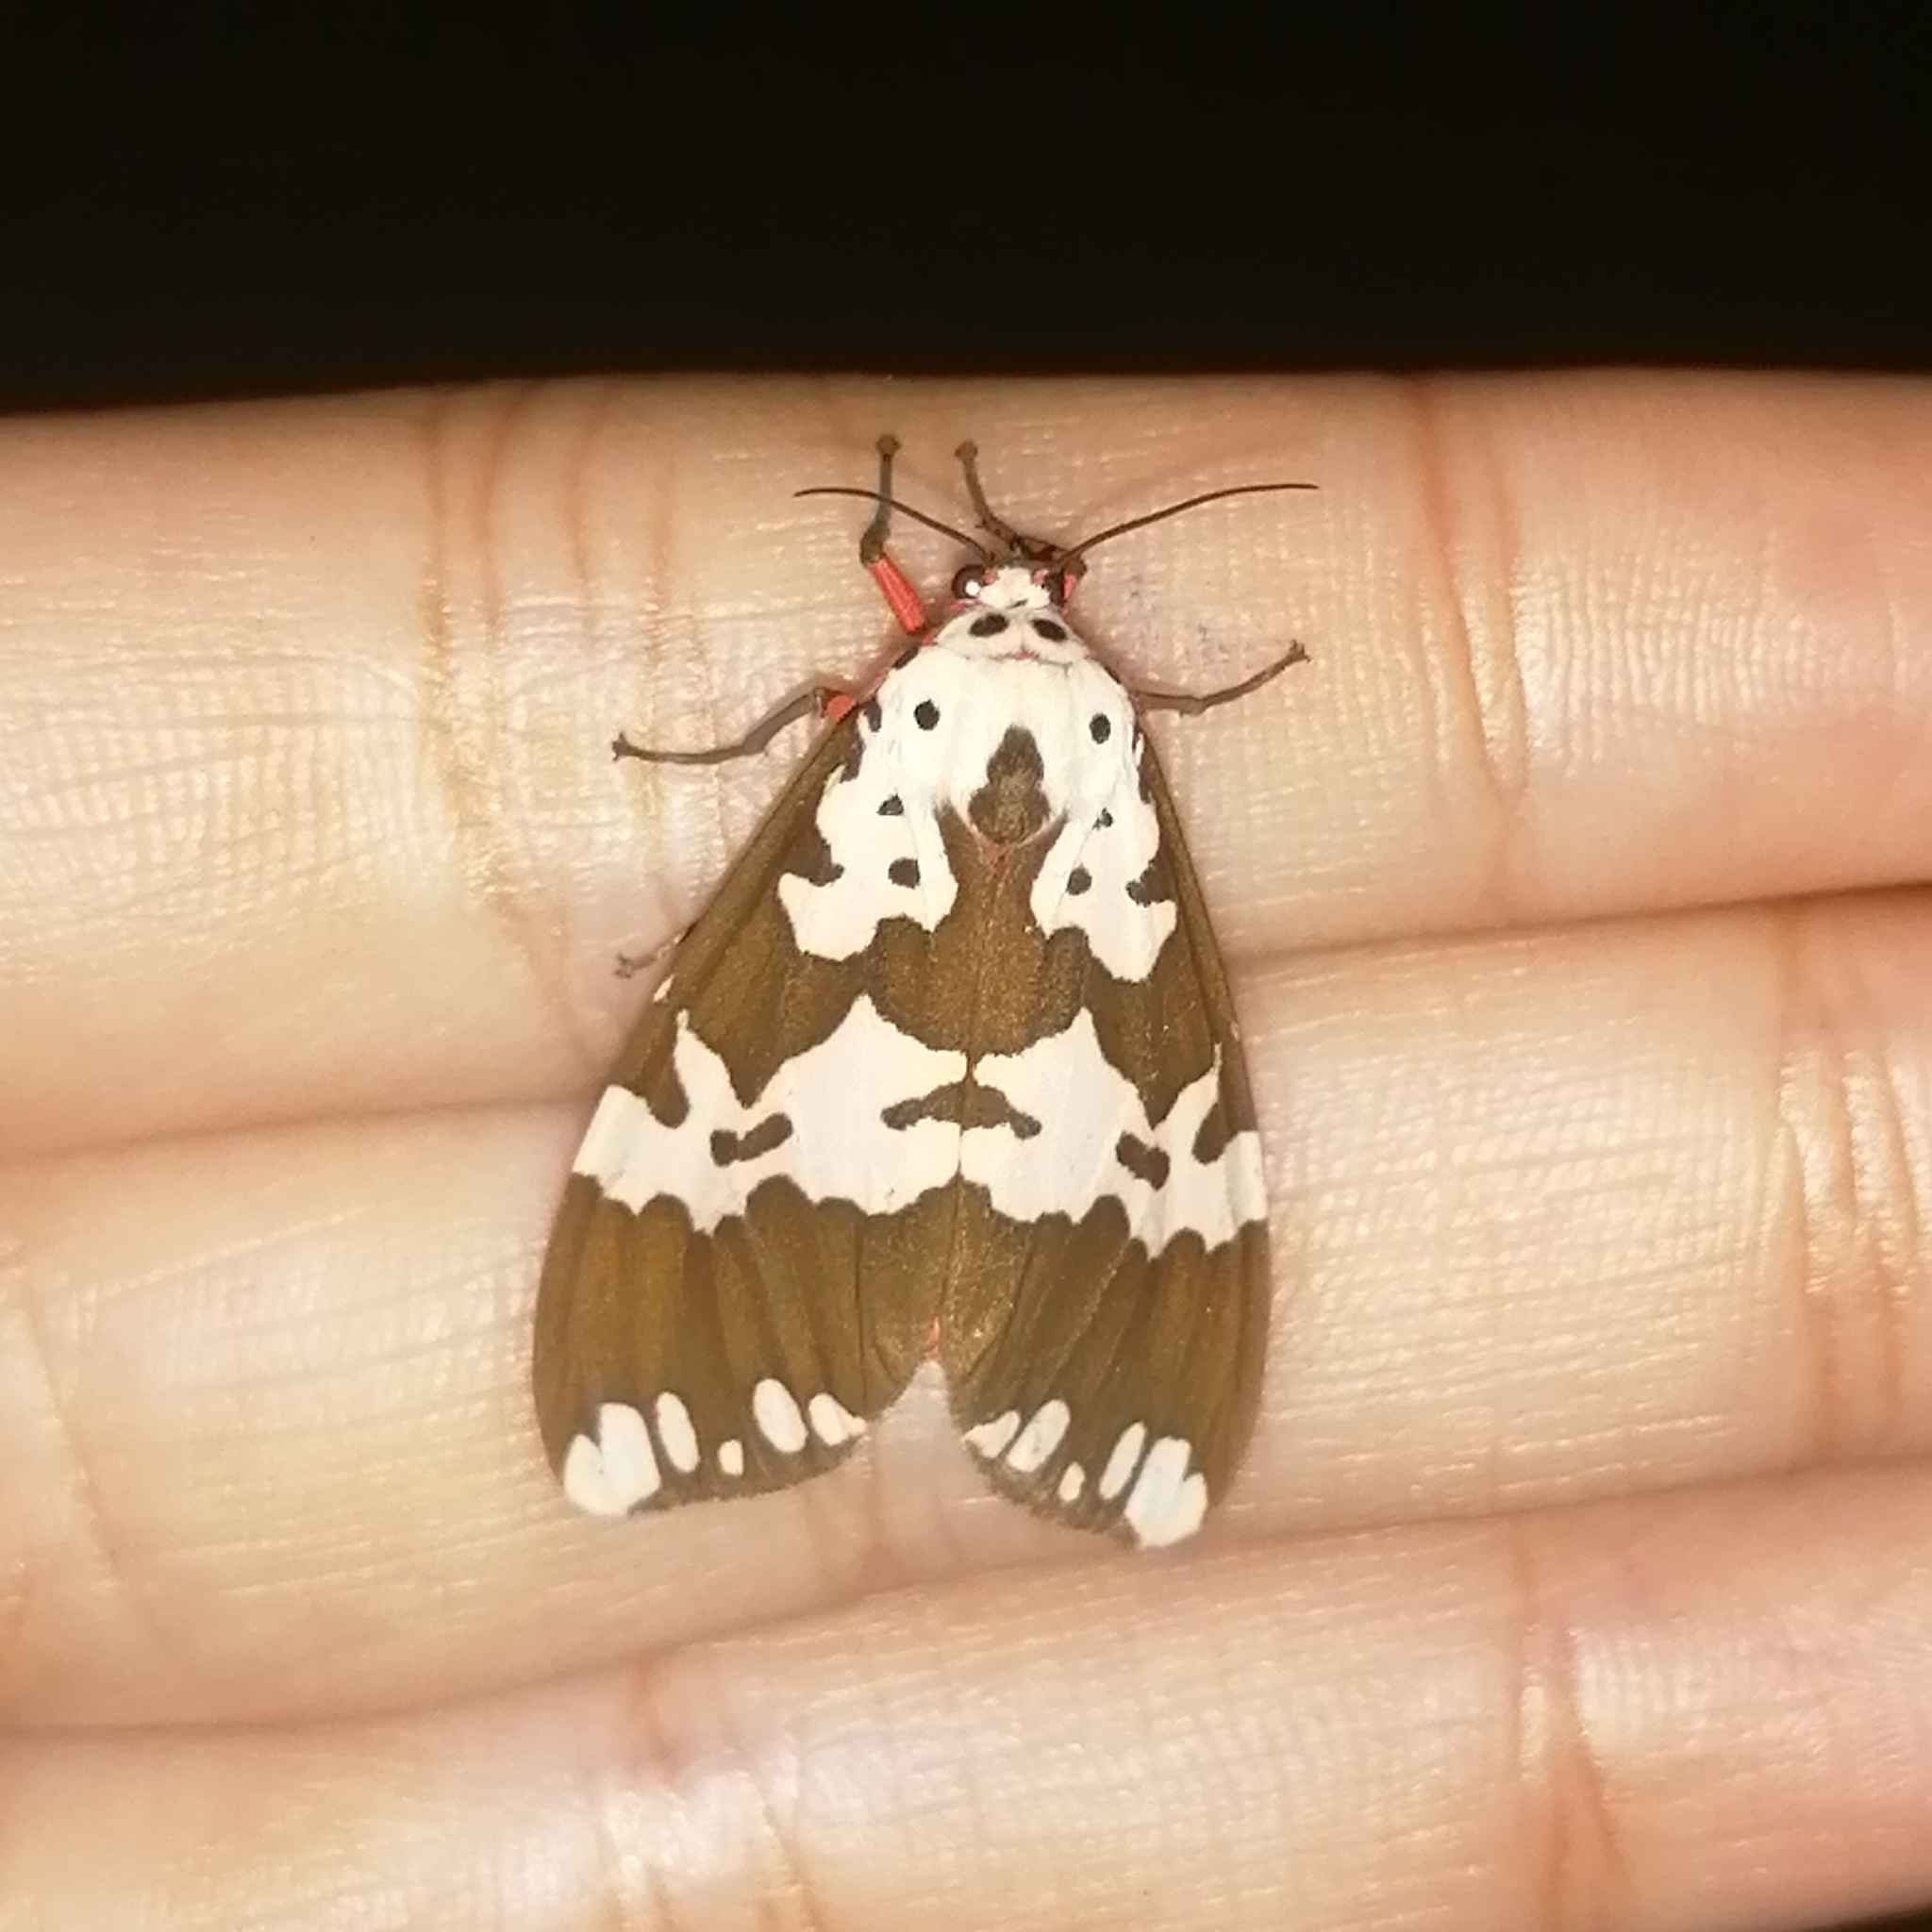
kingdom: Animalia
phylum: Arthropoda
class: Insecta
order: Lepidoptera
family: Erebidae
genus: Pericallia
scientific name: Pericallia
